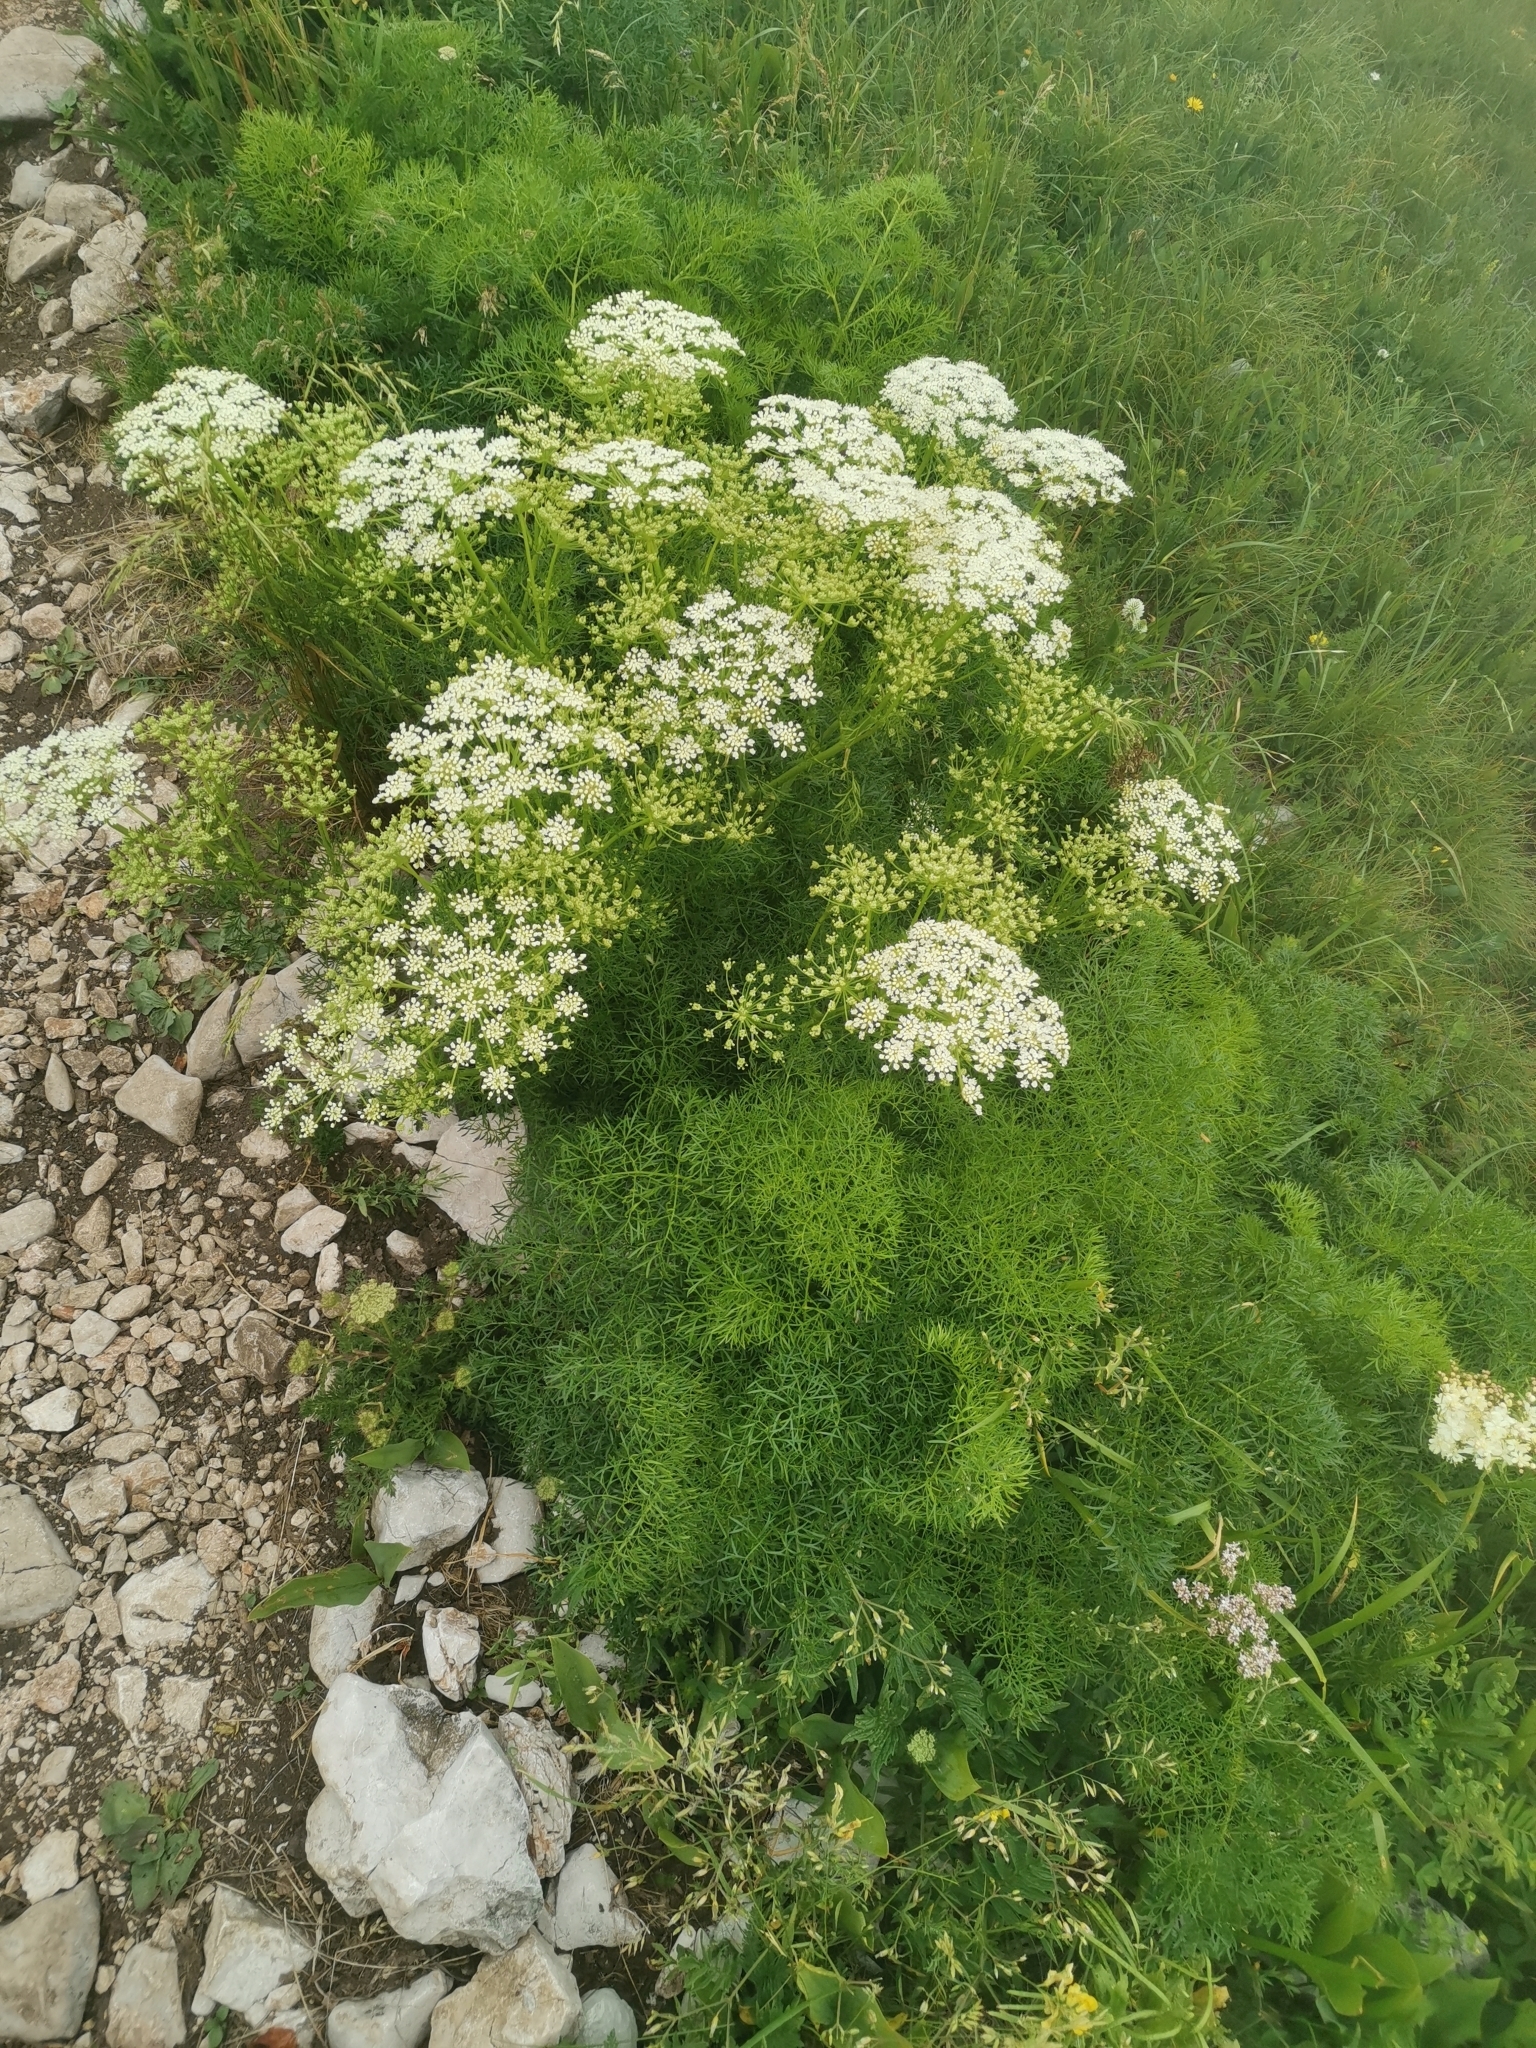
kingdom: Plantae
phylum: Tracheophyta
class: Magnoliopsida
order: Apiales
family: Apiaceae
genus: Coristospermum
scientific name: Coristospermum lucidum
